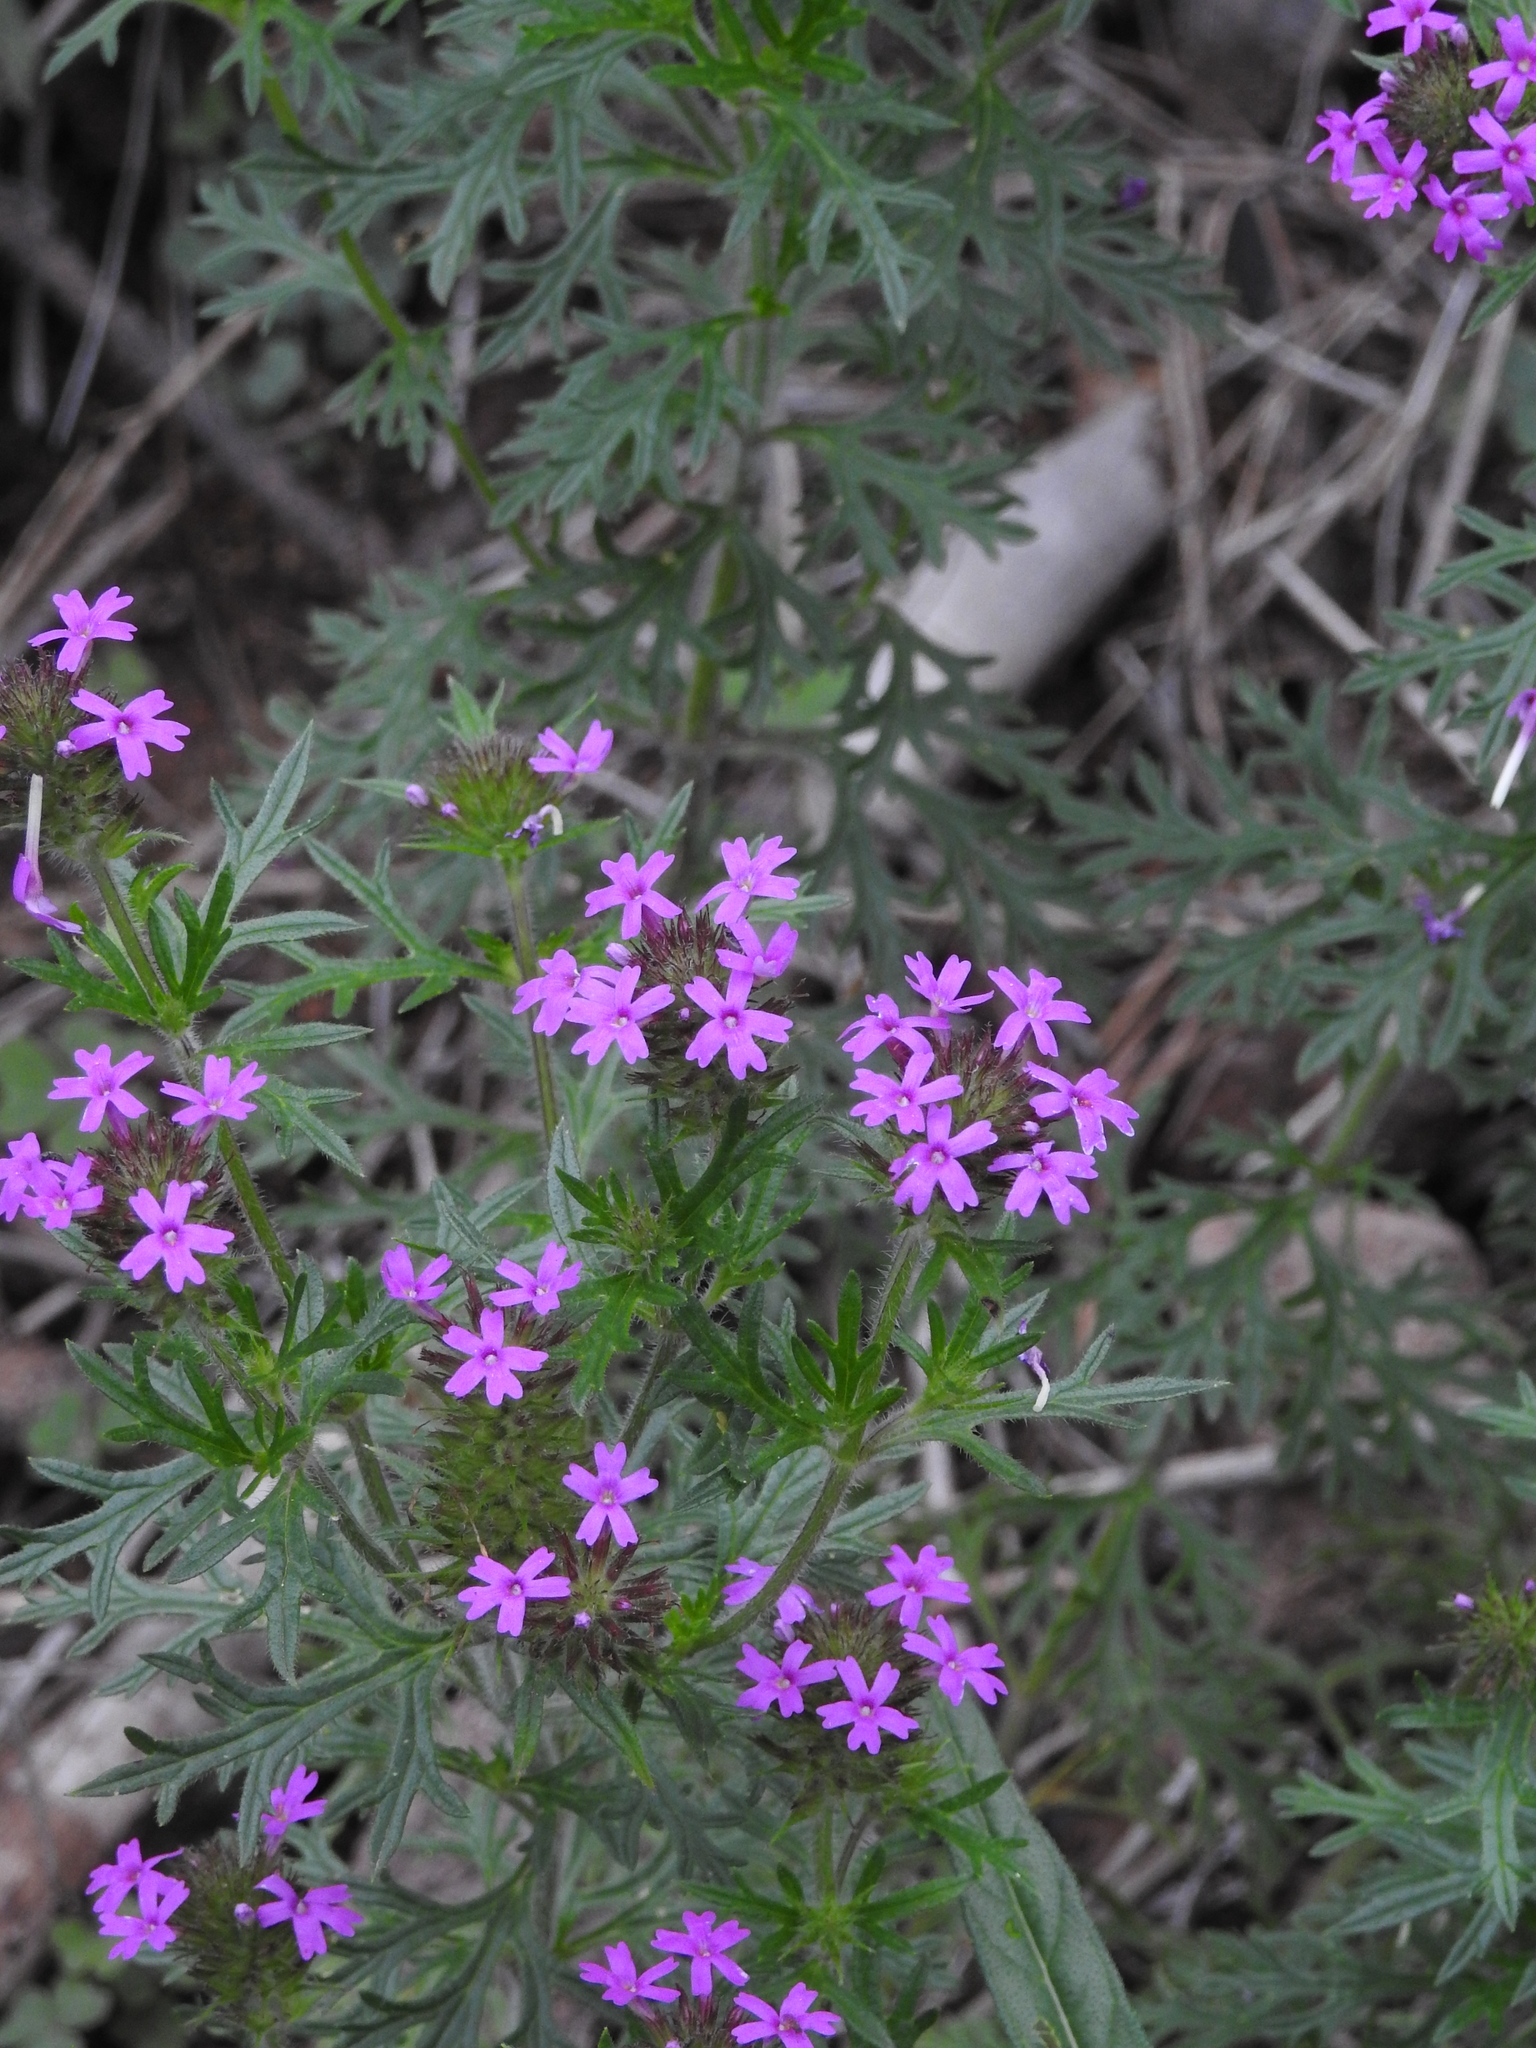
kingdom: Plantae
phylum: Tracheophyta
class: Magnoliopsida
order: Lamiales
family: Verbenaceae
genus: Verbena
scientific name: Verbena chiricahensis
